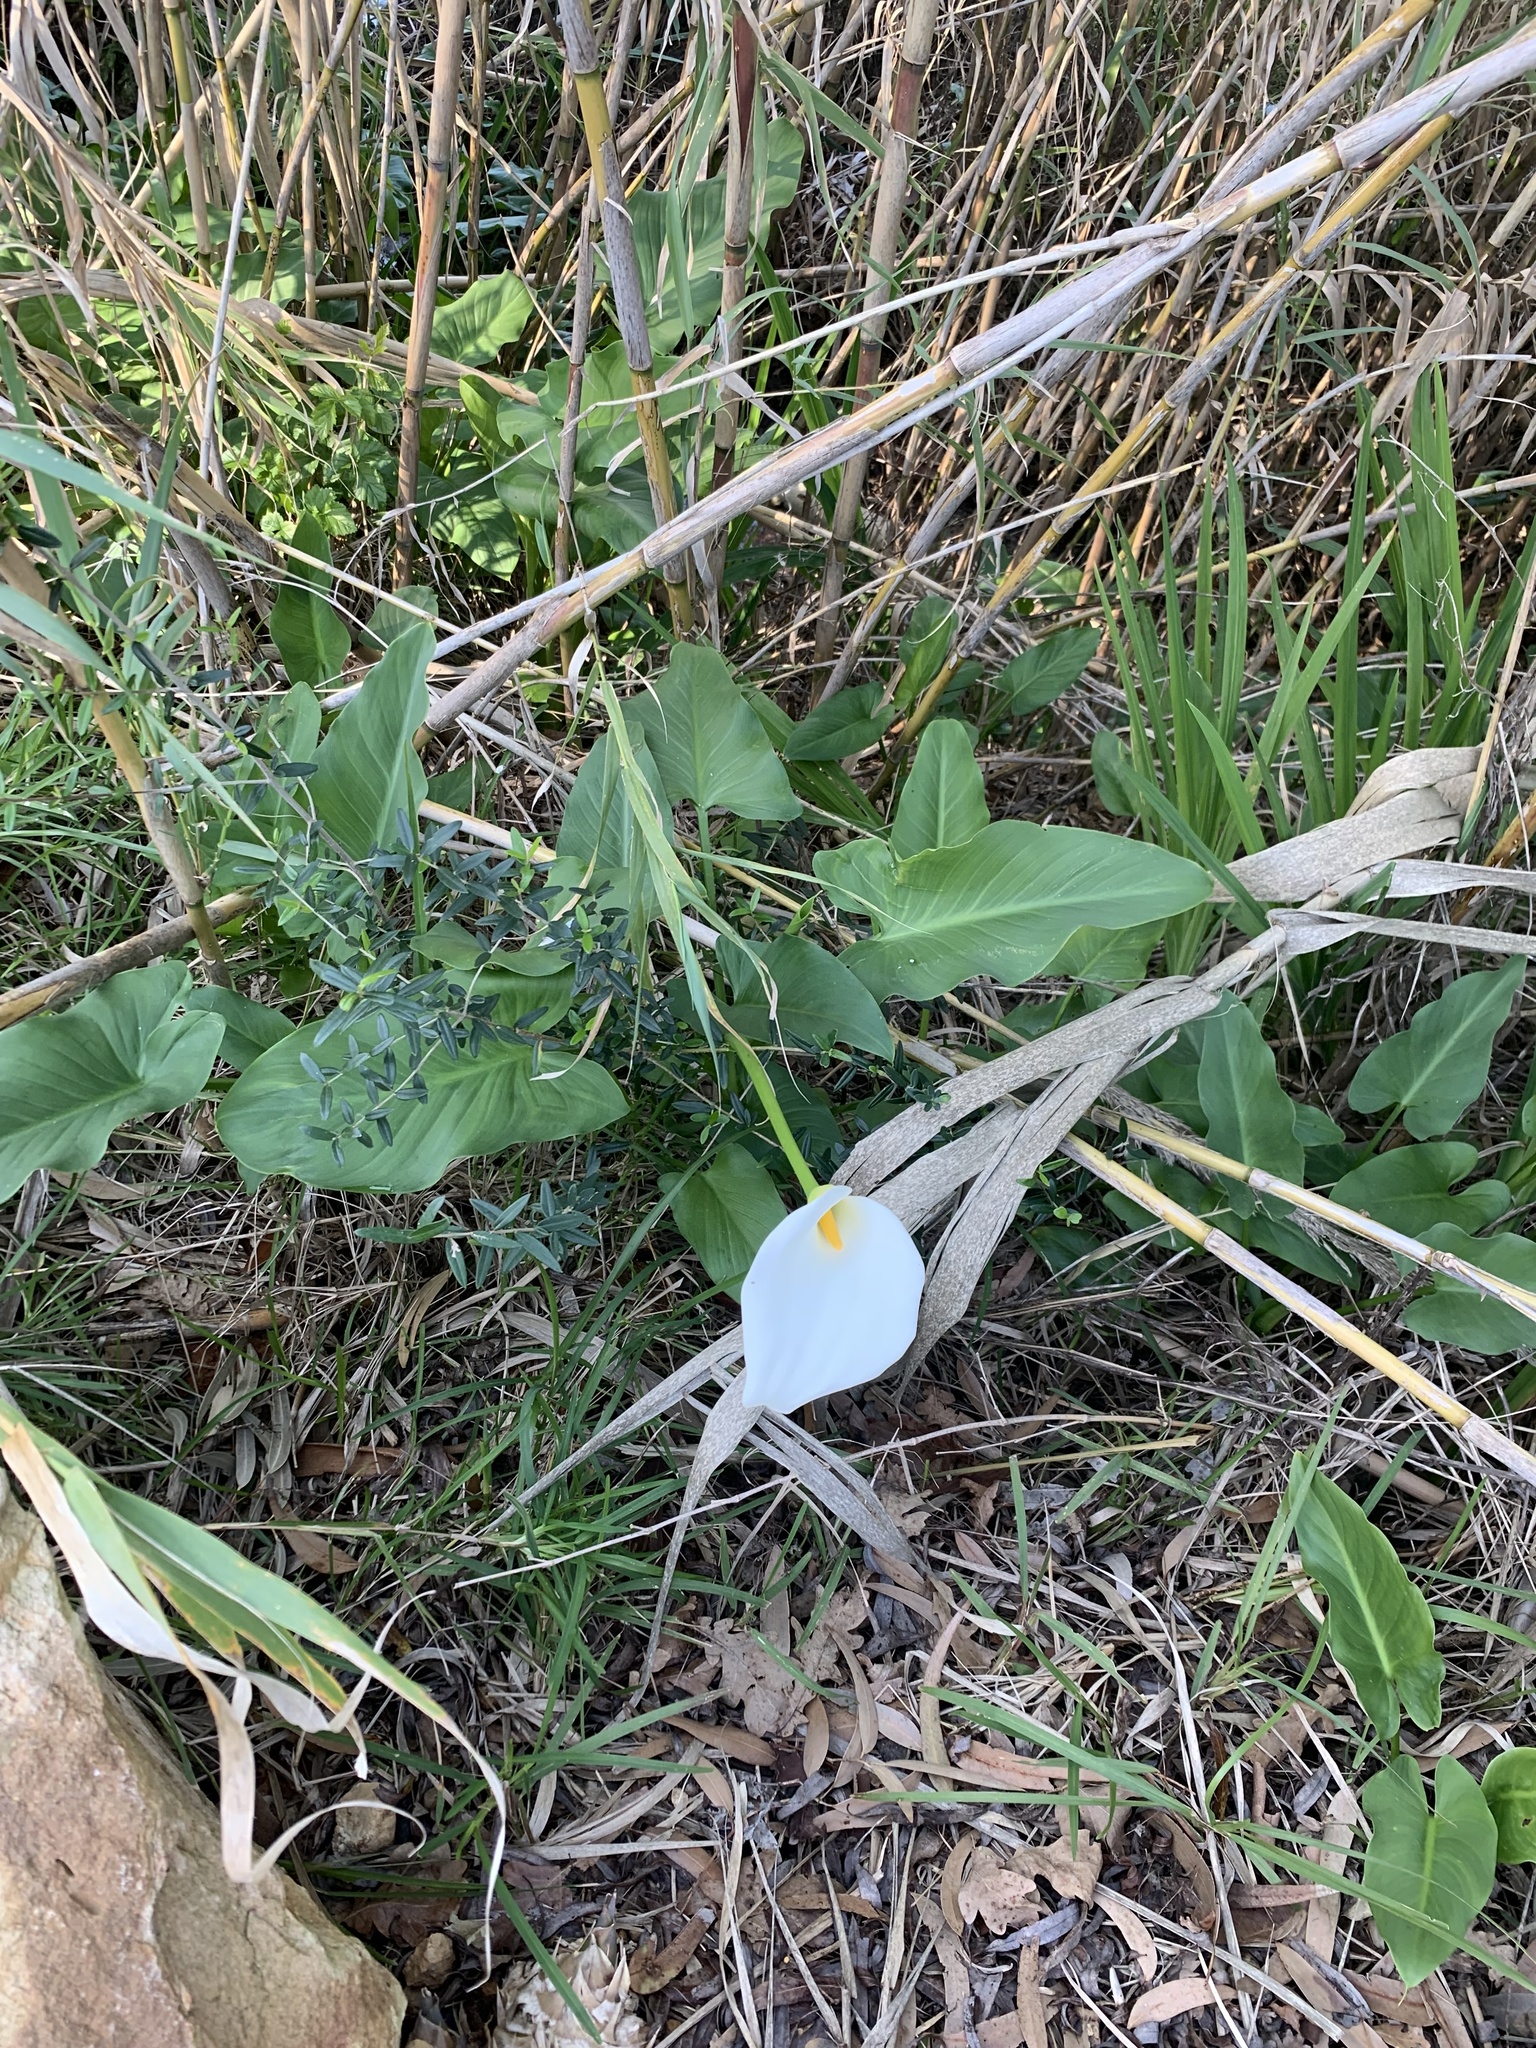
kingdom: Plantae
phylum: Tracheophyta
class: Liliopsida
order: Alismatales
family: Araceae
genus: Zantedeschia
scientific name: Zantedeschia aethiopica
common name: Altar-lily
